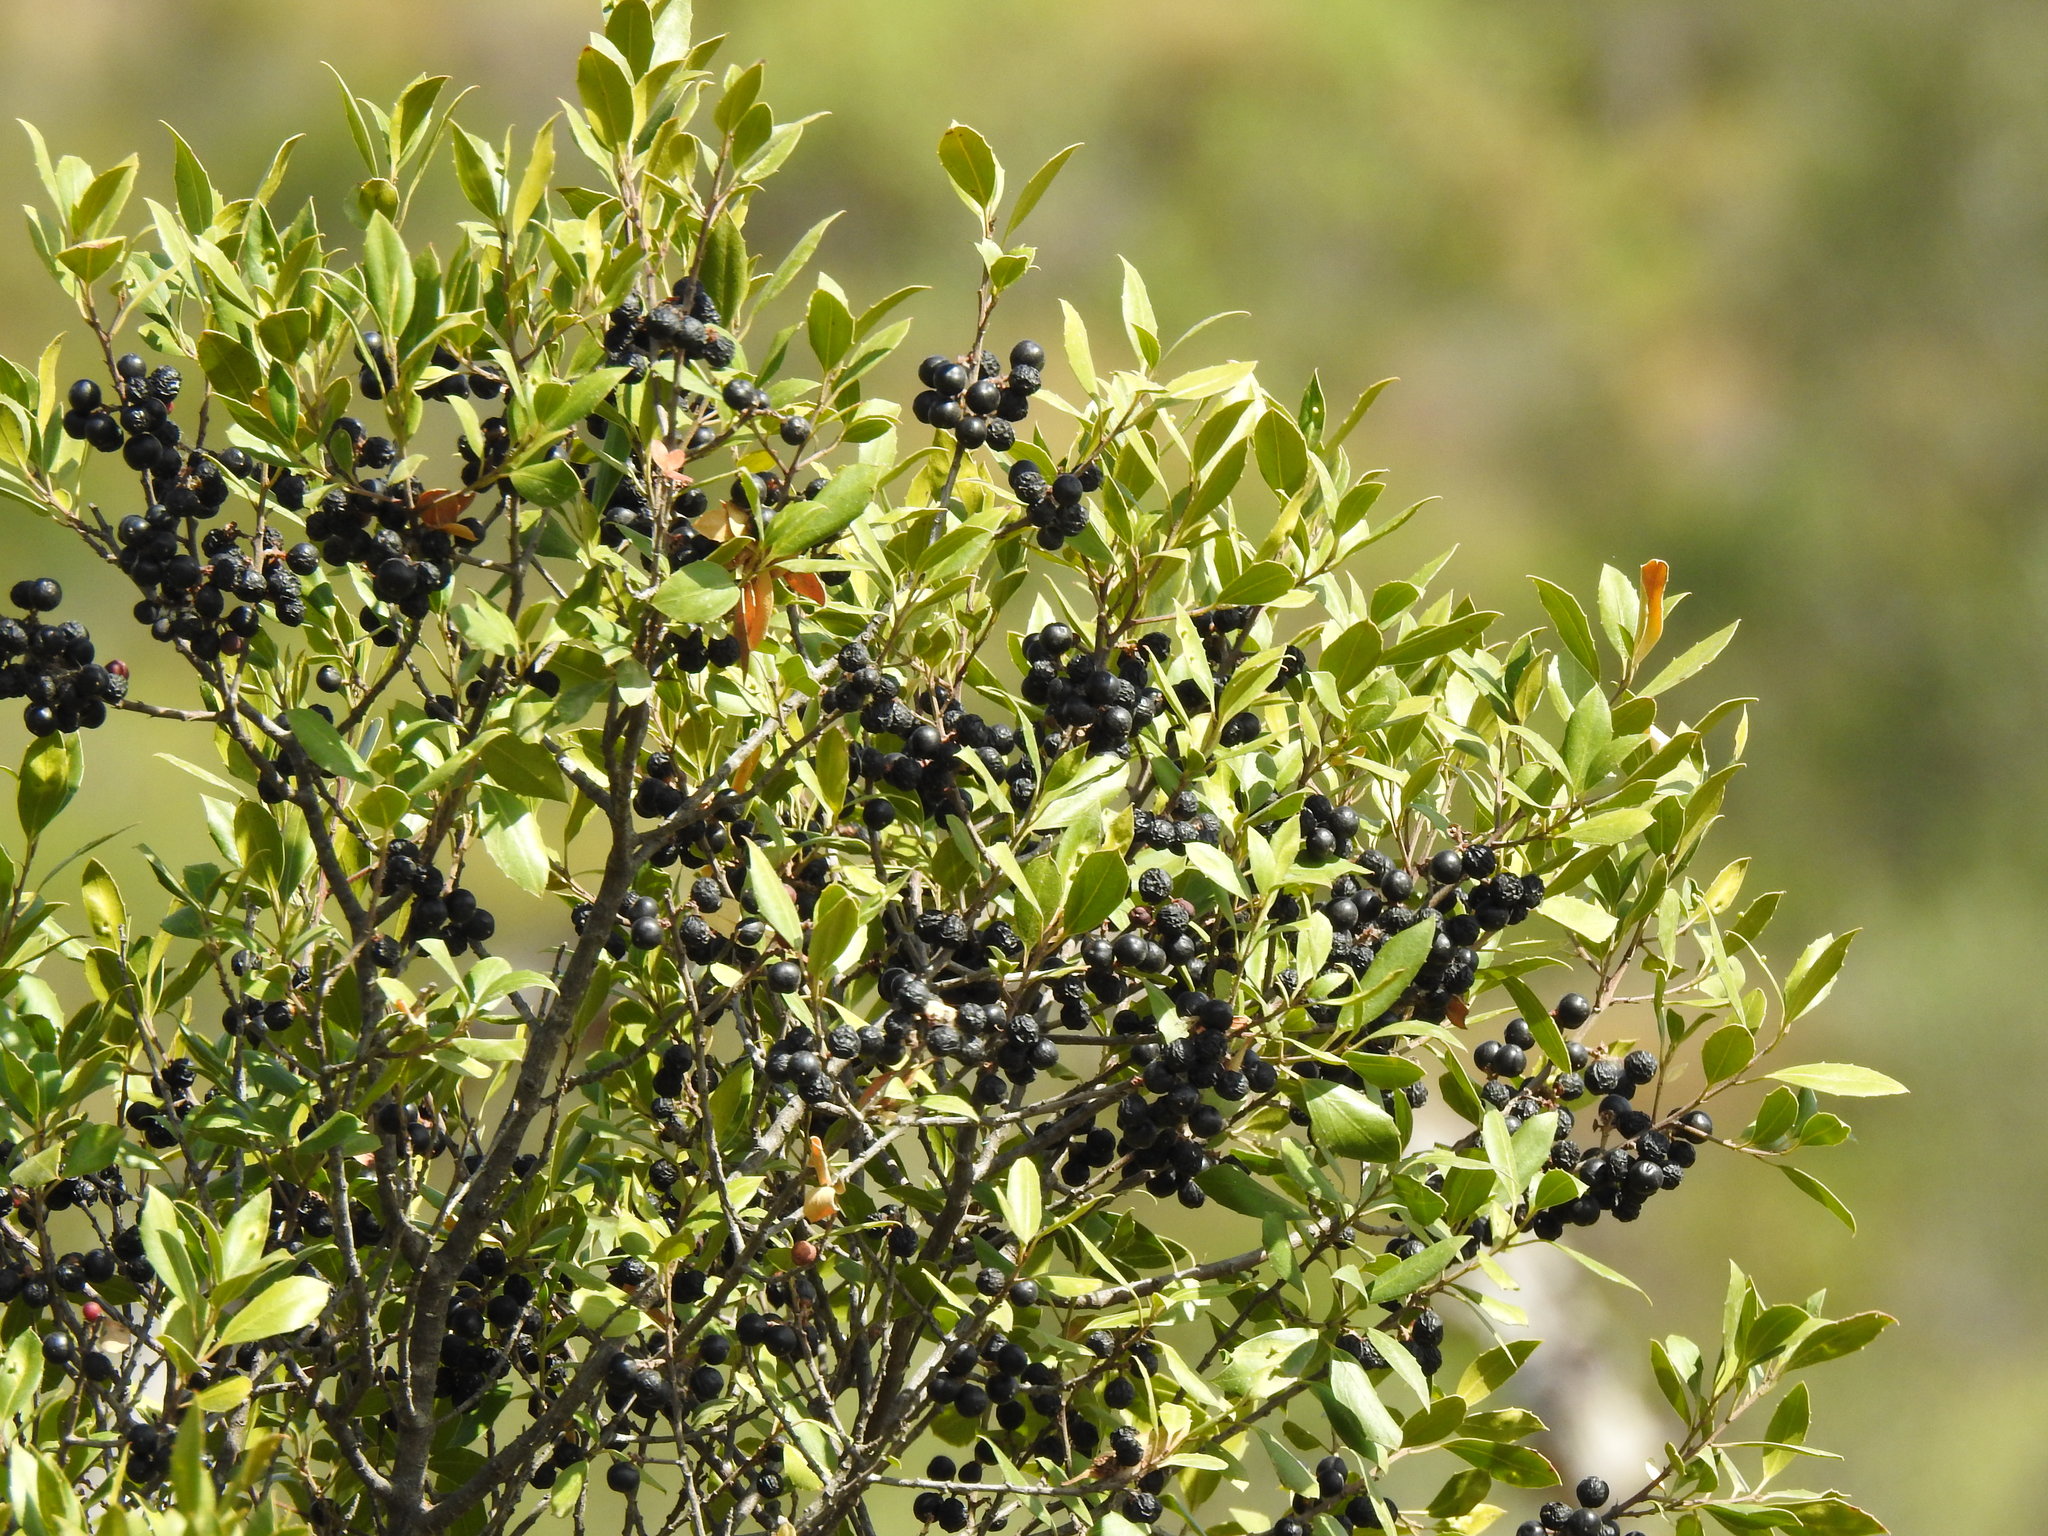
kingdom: Plantae
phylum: Tracheophyta
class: Magnoliopsida
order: Rosales
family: Rhamnaceae
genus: Rhamnus
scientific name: Rhamnus alaternus
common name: Mediterranean buckthorn
